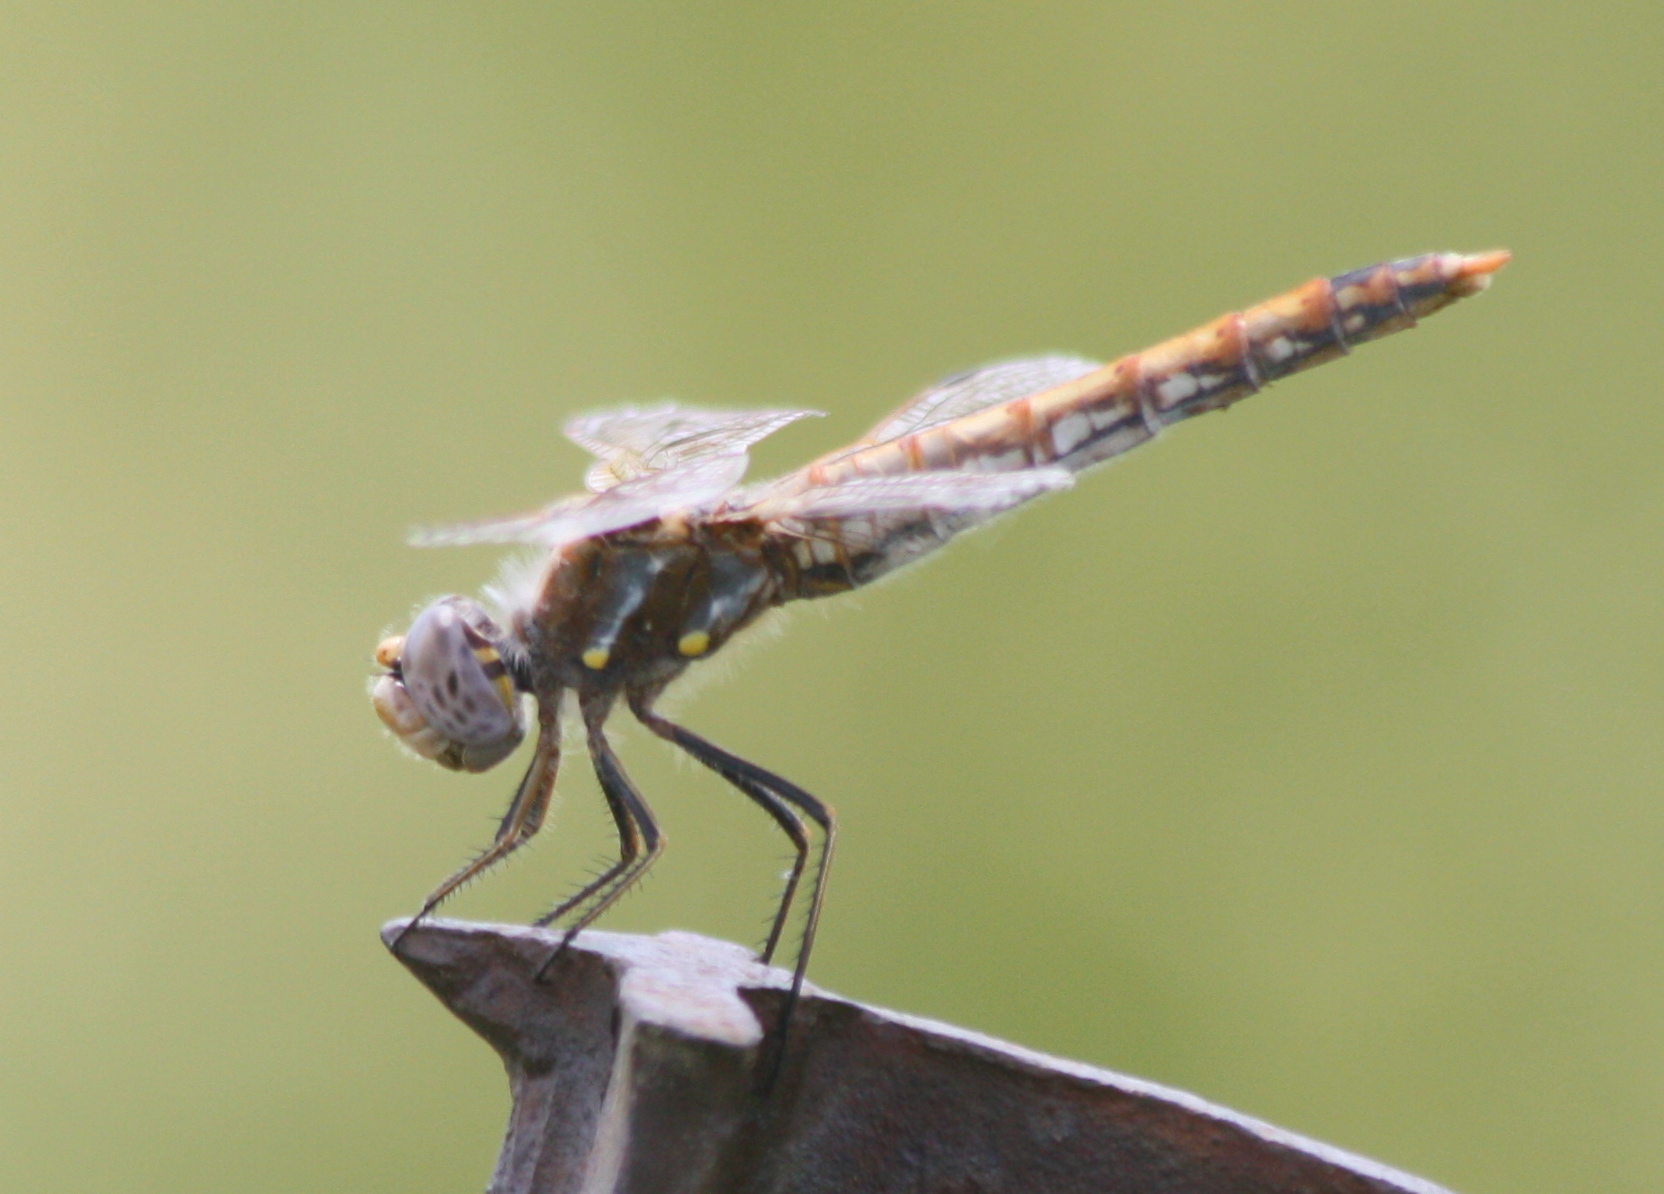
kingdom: Animalia
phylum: Arthropoda
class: Insecta
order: Odonata
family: Libellulidae
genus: Sympetrum
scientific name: Sympetrum corruptum
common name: Variegated meadowhawk
